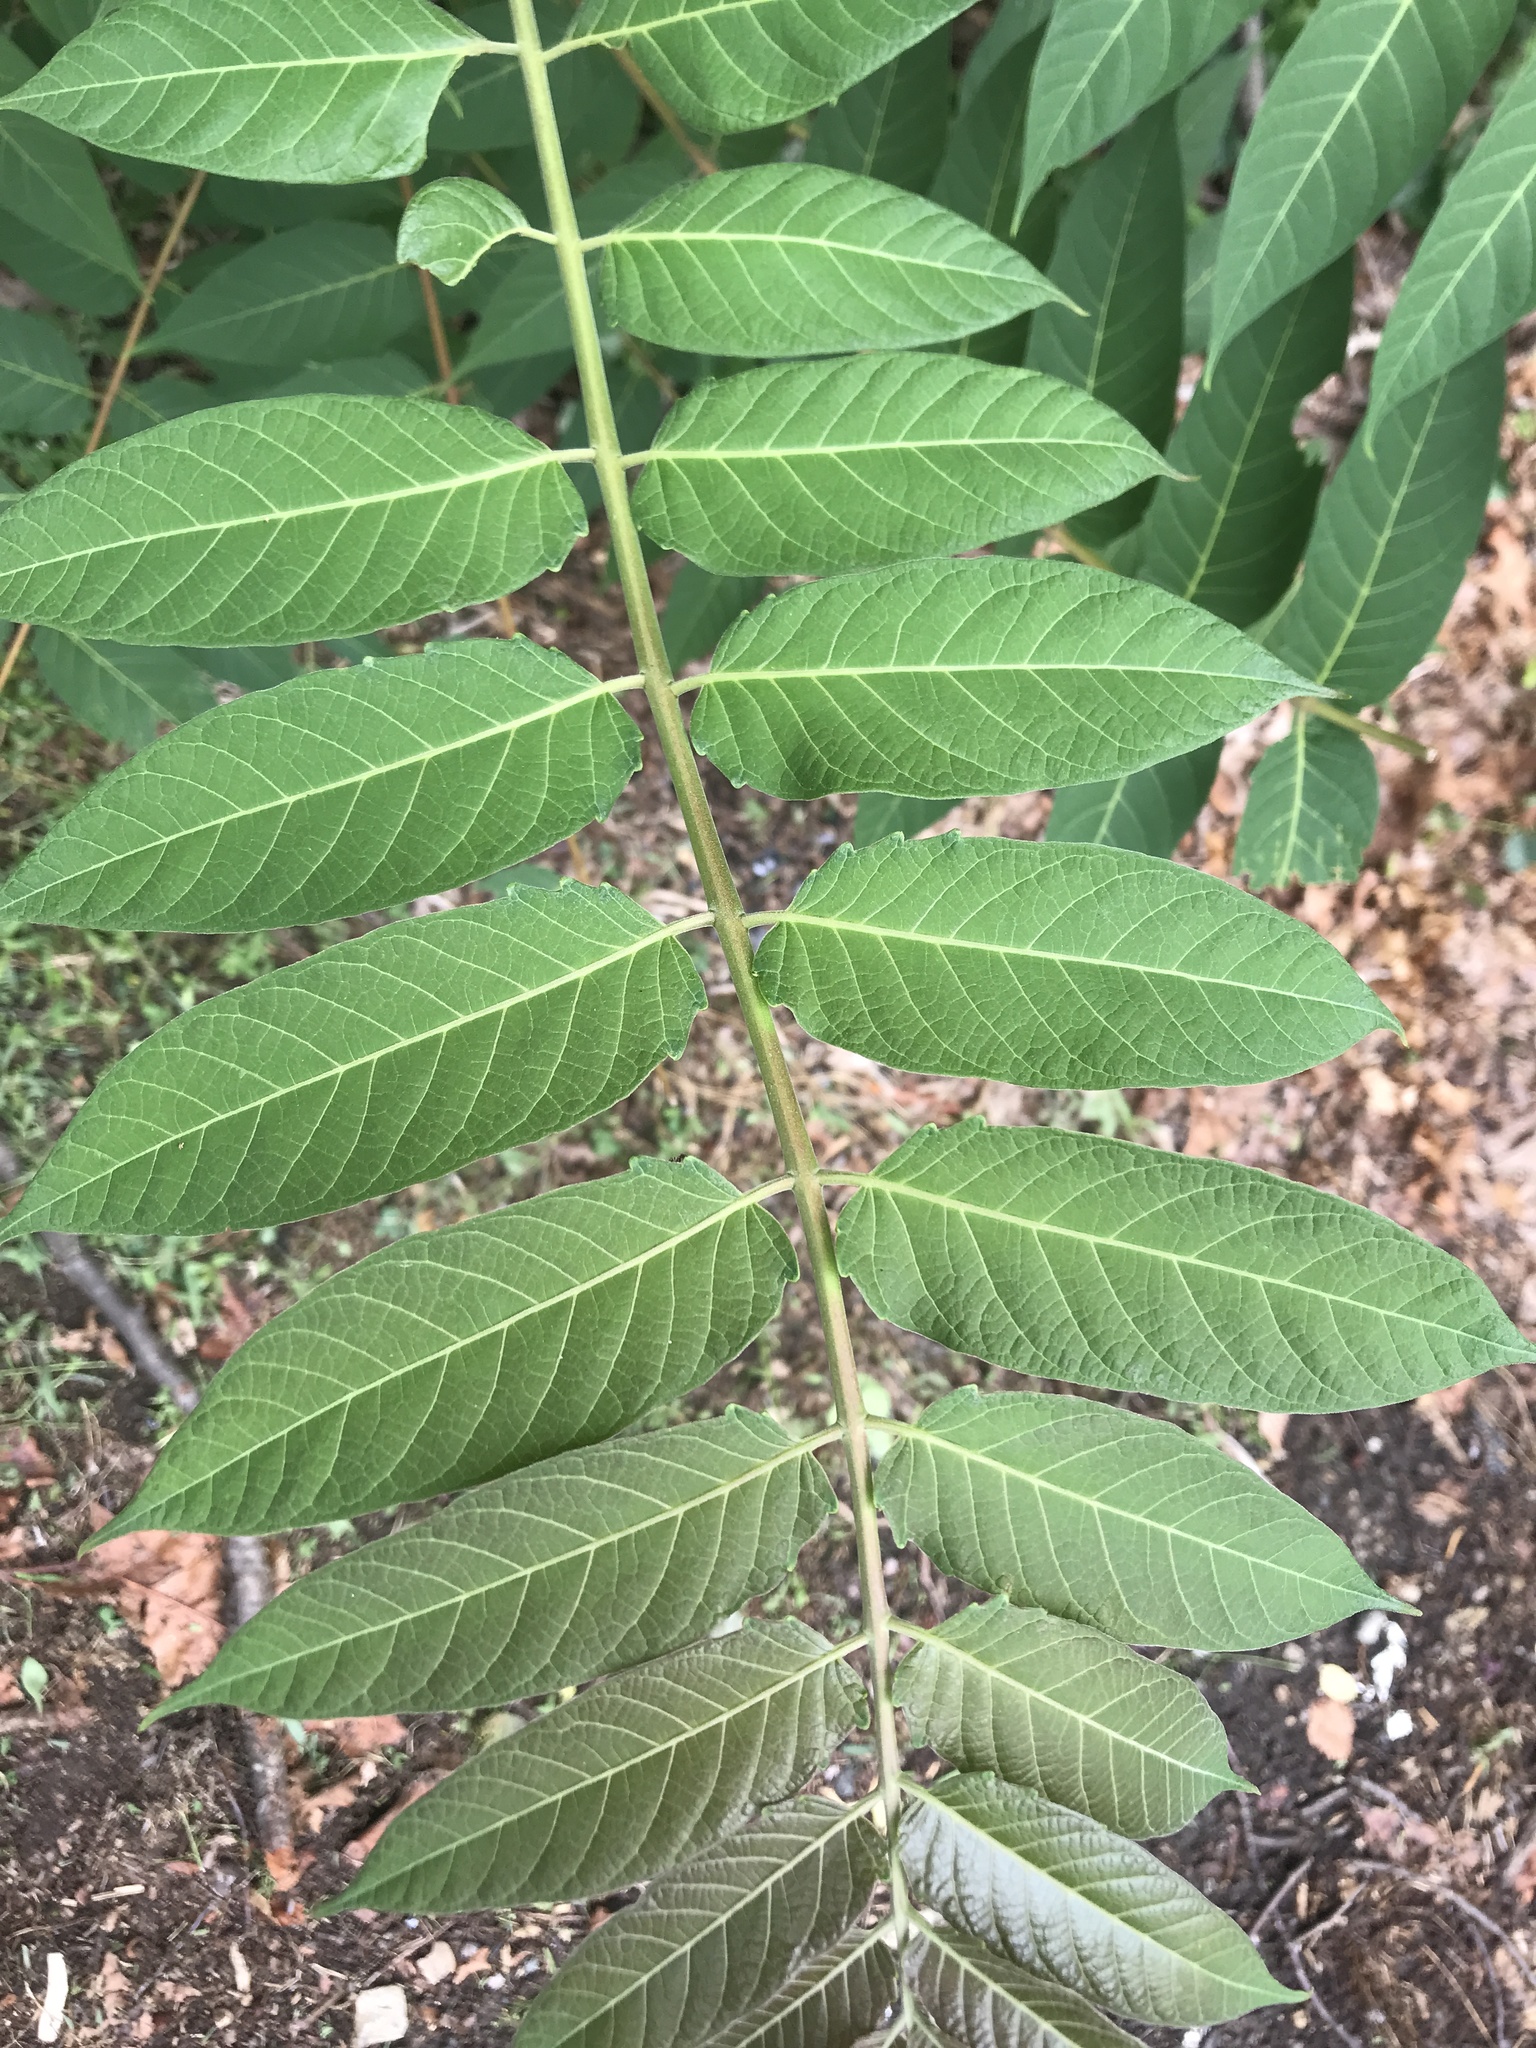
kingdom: Plantae
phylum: Tracheophyta
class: Magnoliopsida
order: Sapindales
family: Simaroubaceae
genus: Ailanthus
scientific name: Ailanthus altissima
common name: Tree-of-heaven
